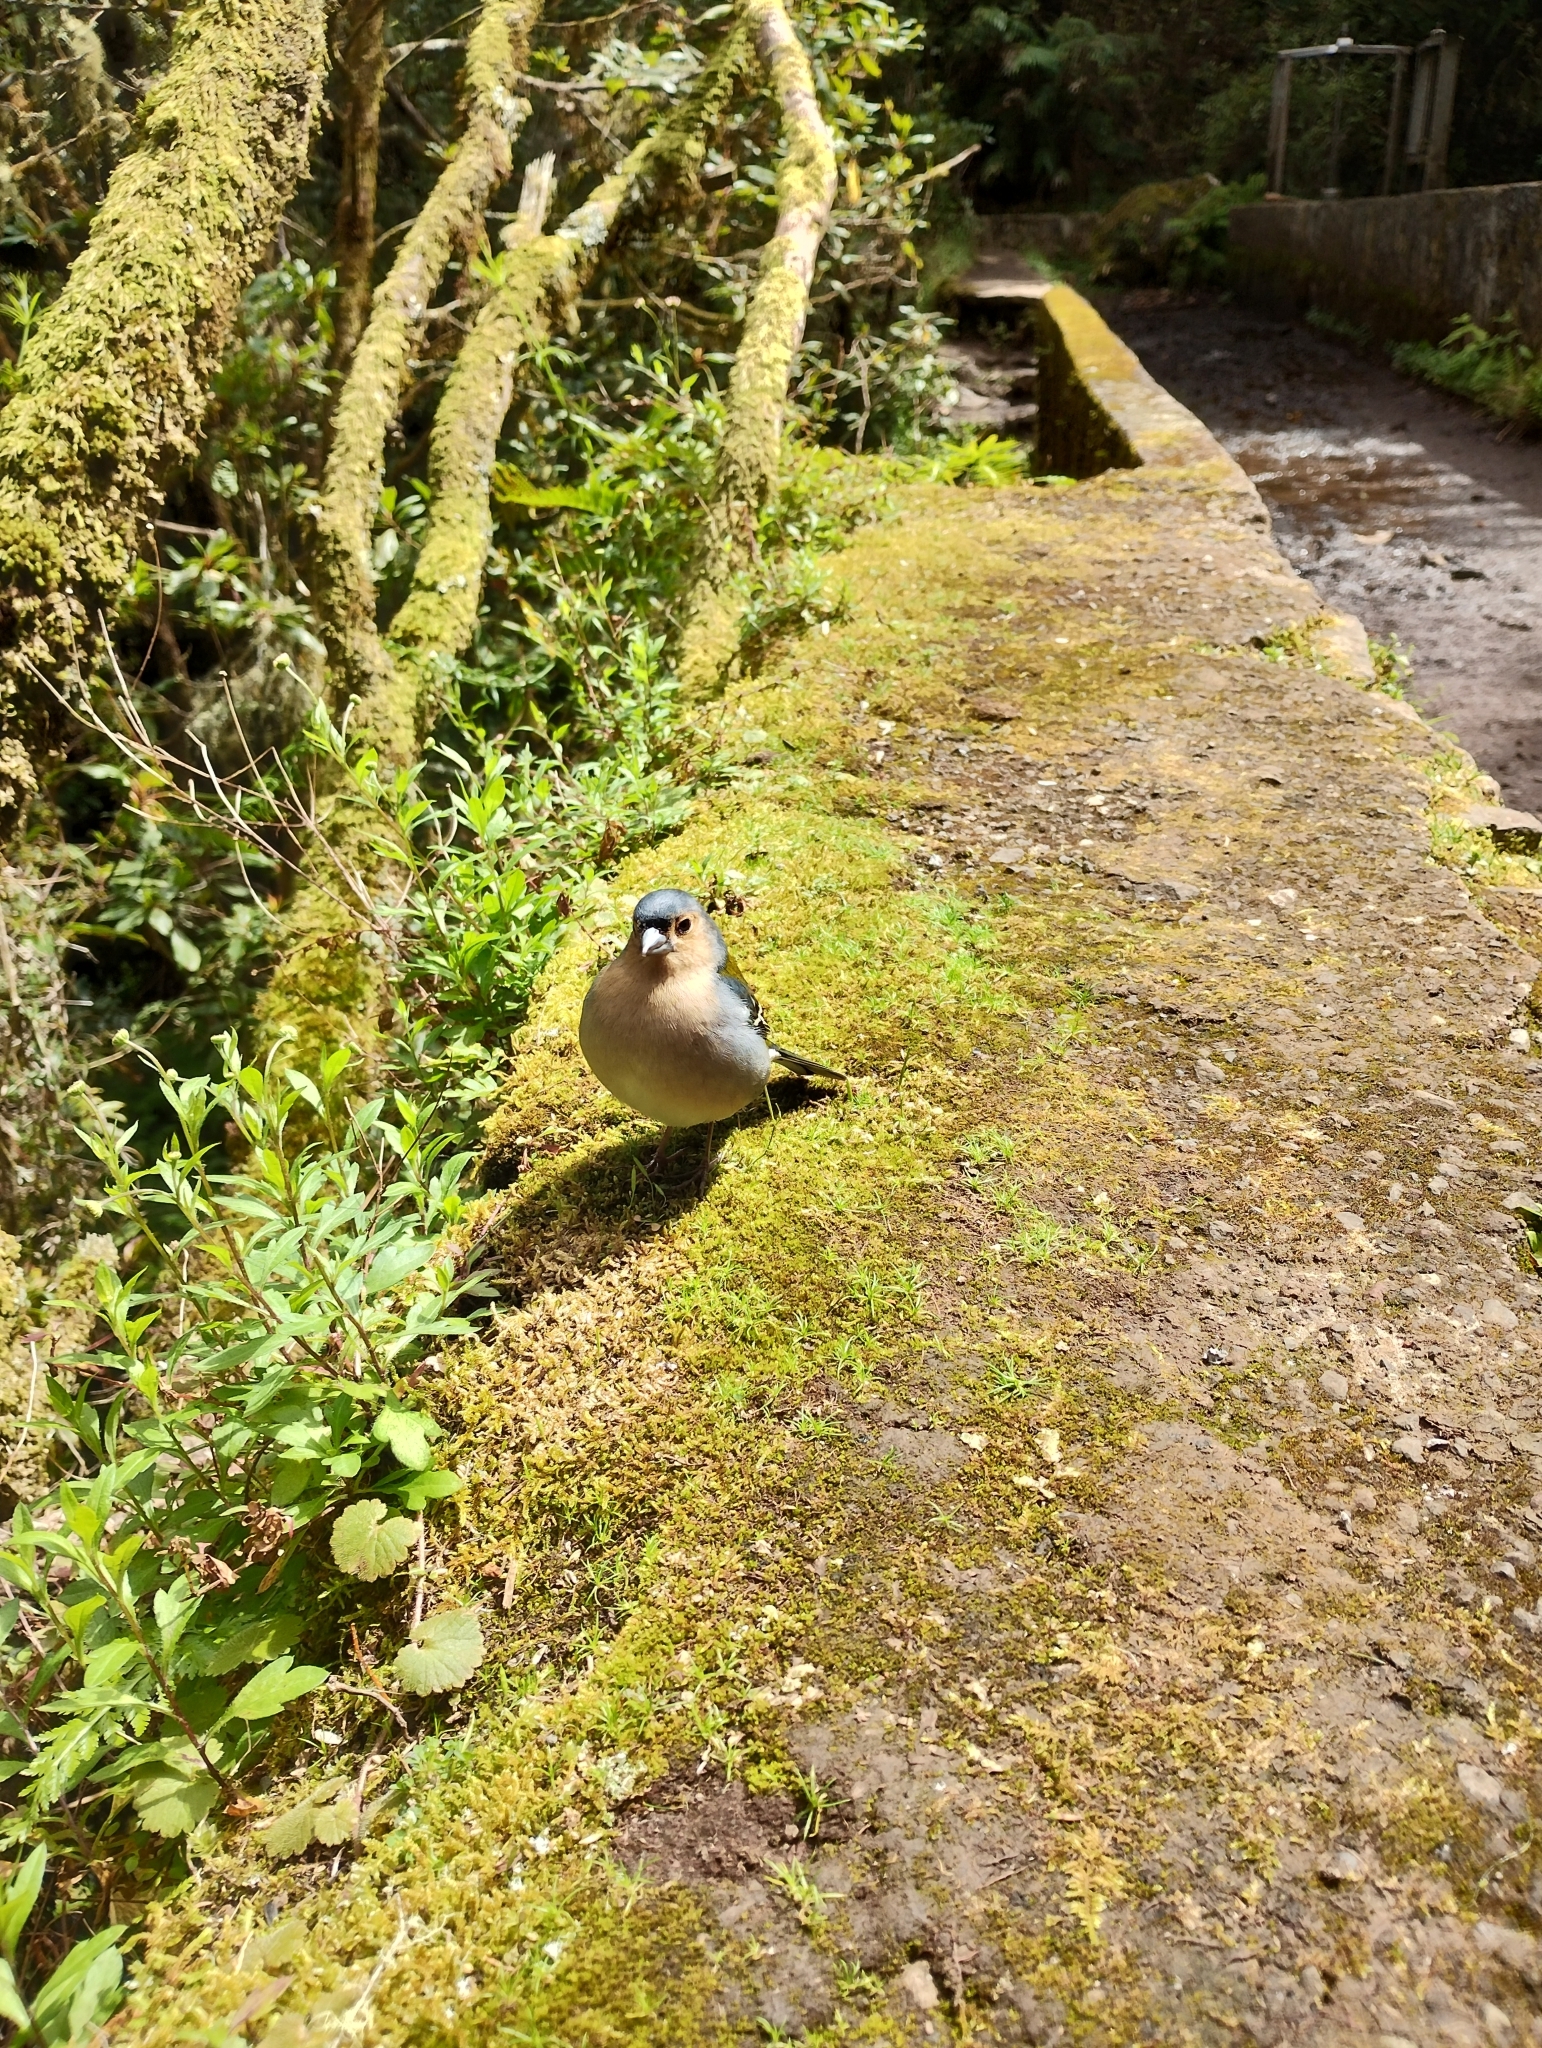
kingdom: Animalia
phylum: Chordata
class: Aves
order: Passeriformes
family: Fringillidae
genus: Fringilla
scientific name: Fringilla maderensis
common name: Madeira chaffinch
